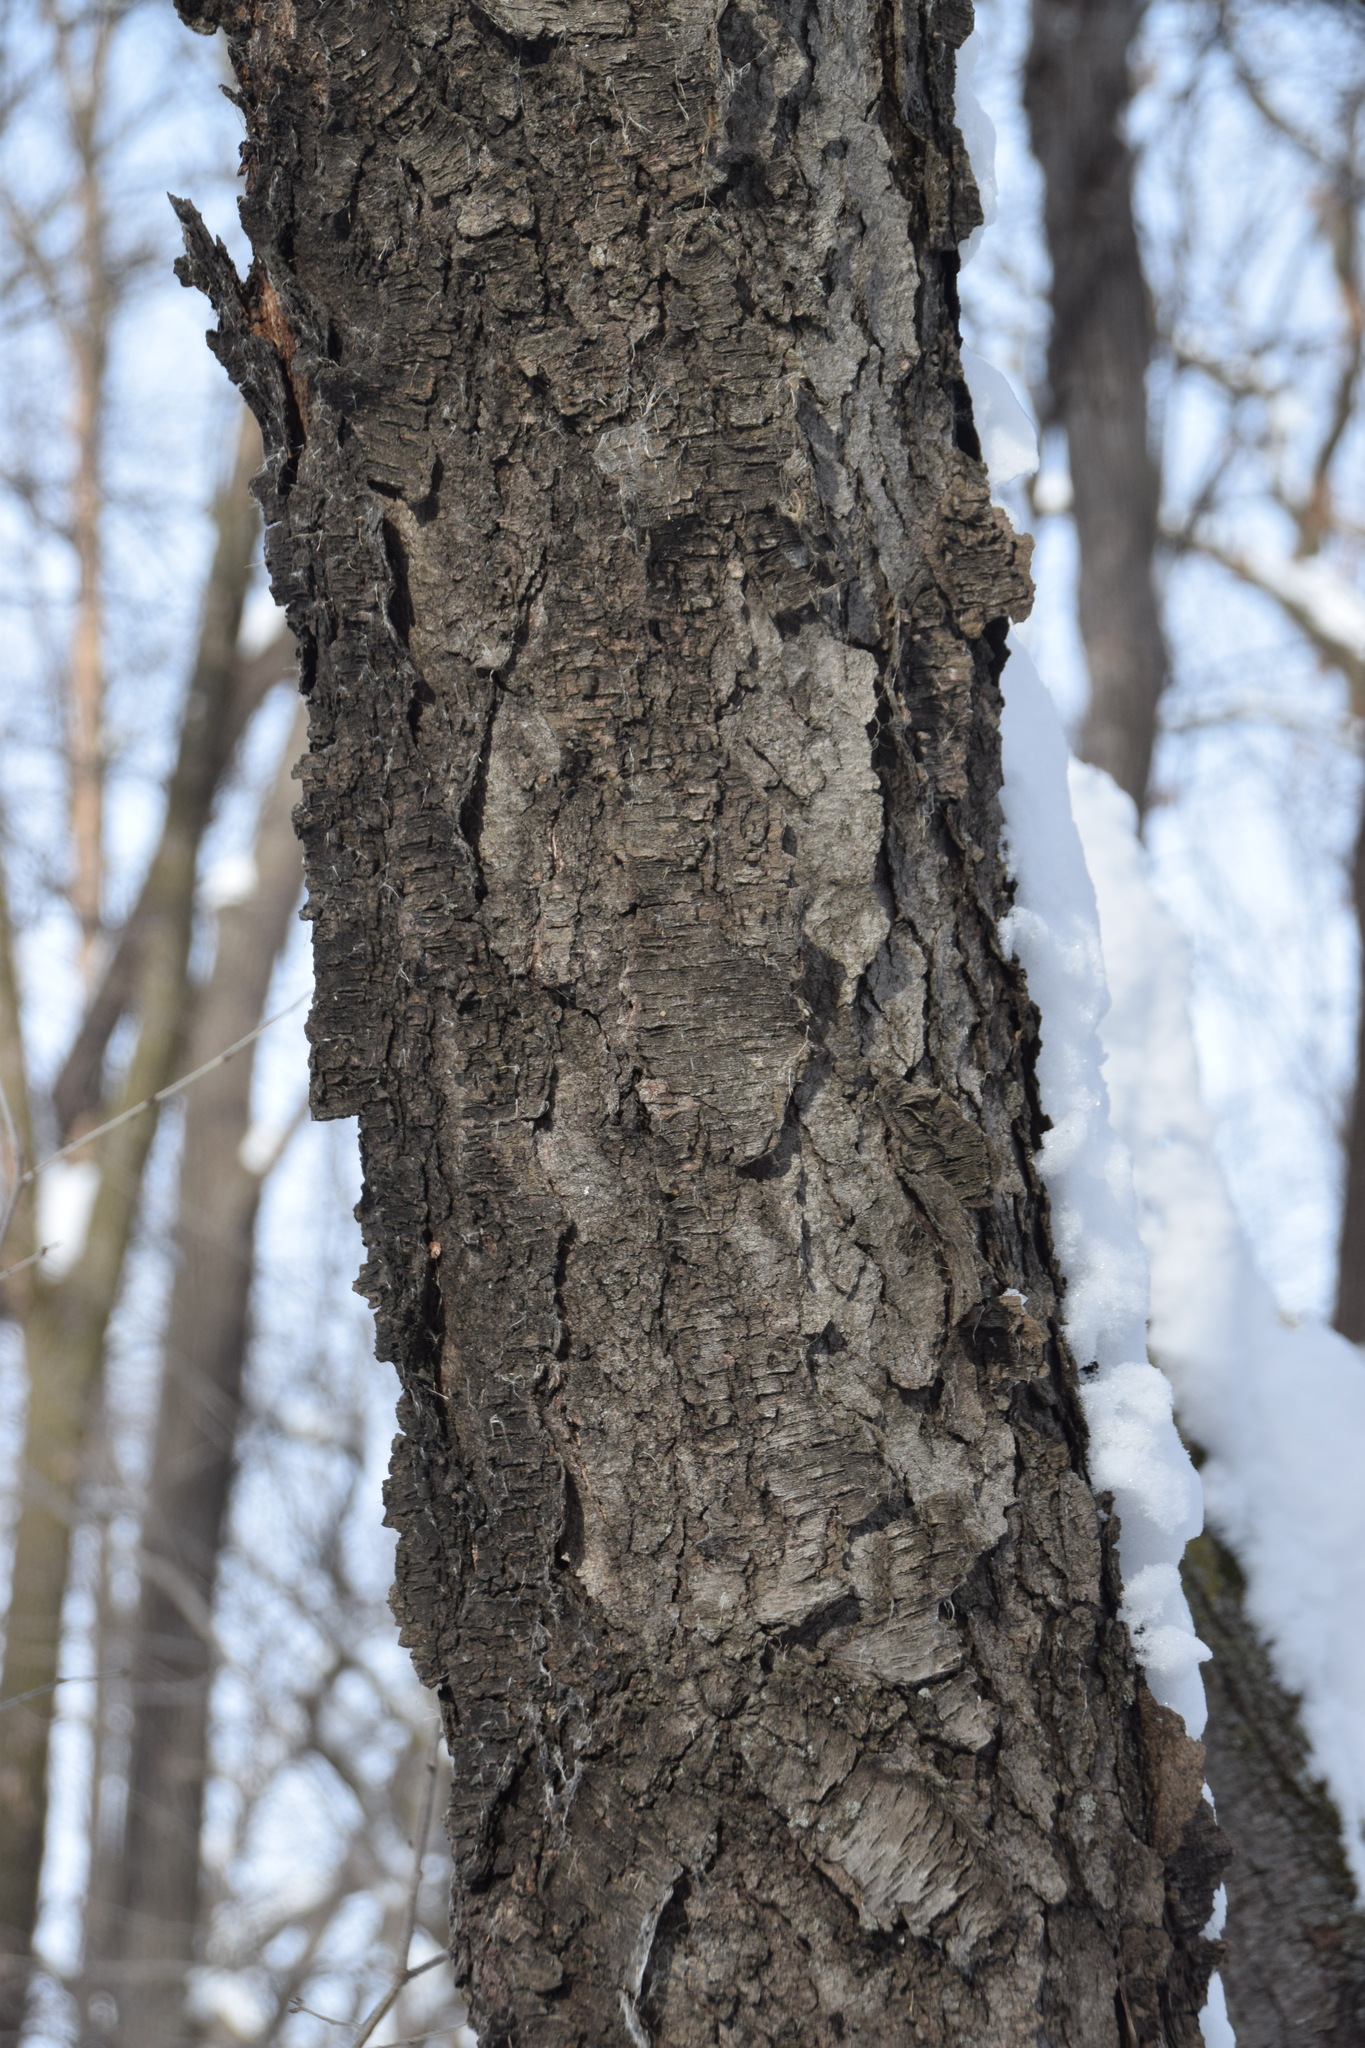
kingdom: Plantae
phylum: Tracheophyta
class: Magnoliopsida
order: Rosales
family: Rosaceae
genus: Prunus
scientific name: Prunus serotina
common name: Black cherry
